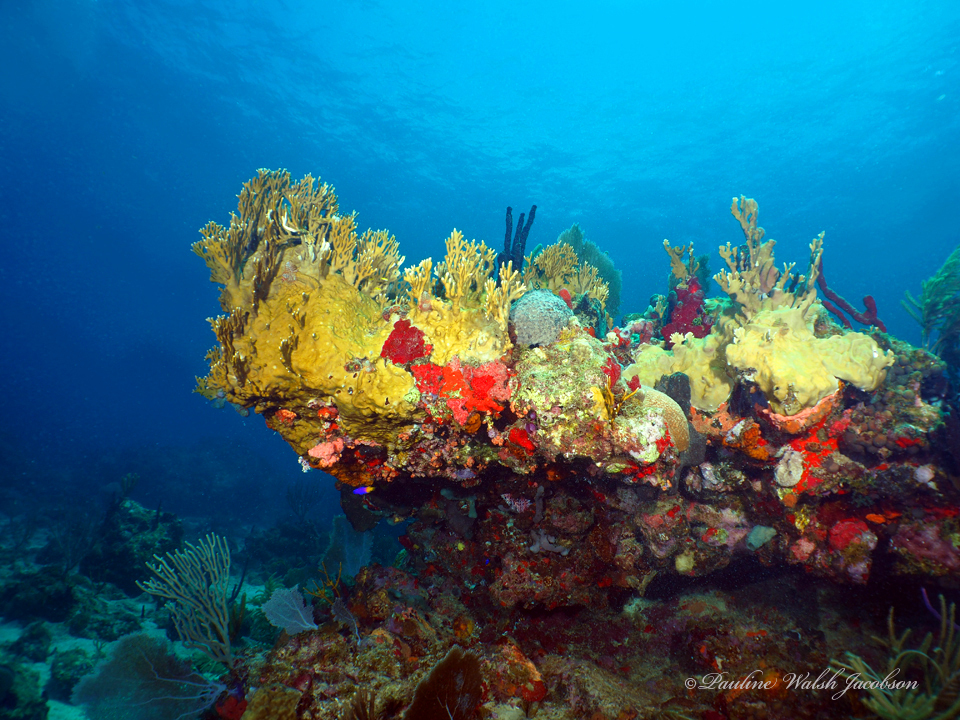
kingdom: Animalia
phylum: Cnidaria
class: Hydrozoa
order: Anthoathecata
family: Milleporidae
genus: Millepora
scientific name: Millepora alcicornis
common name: Branching fire coral
